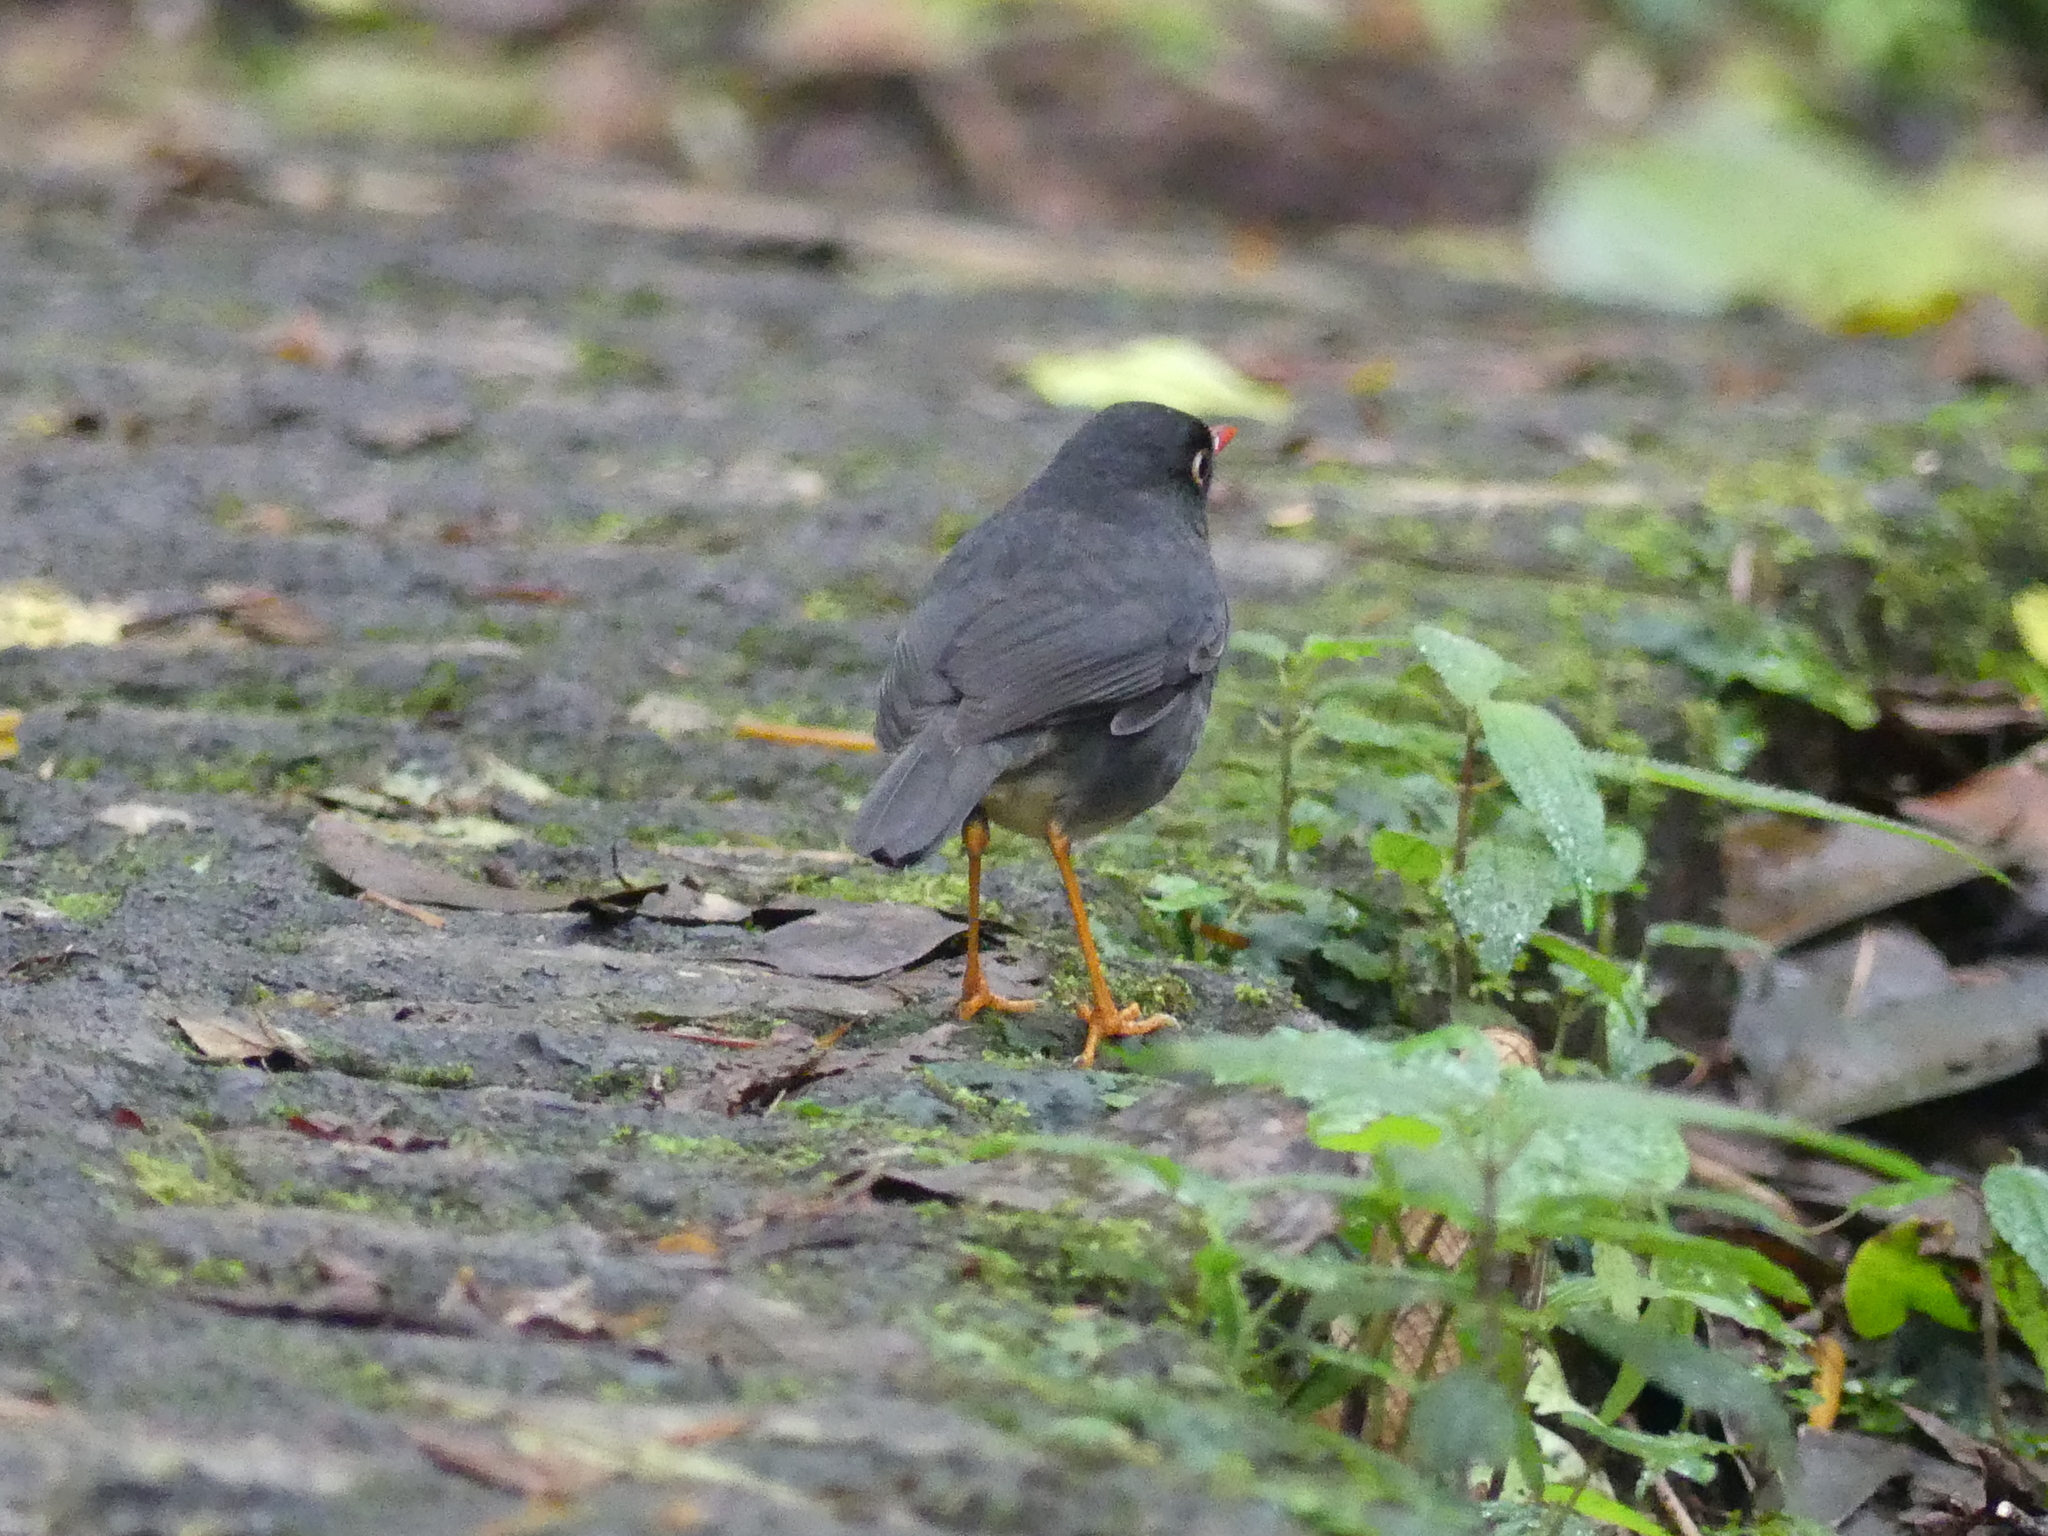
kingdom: Animalia
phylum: Chordata
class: Aves
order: Passeriformes
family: Turdidae
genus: Catharus
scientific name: Catharus fuscater
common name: Slaty-backed nightingale-thrush
